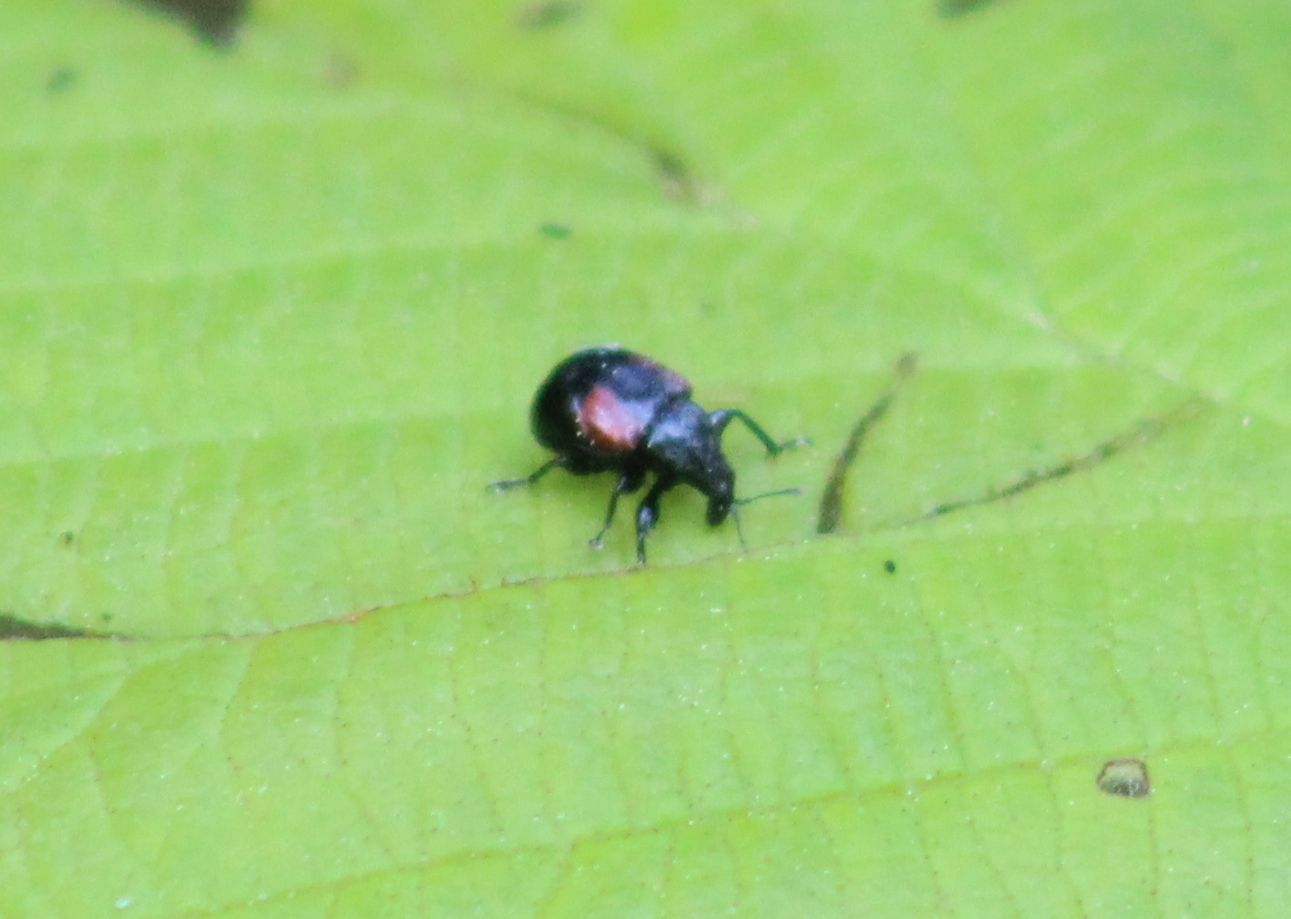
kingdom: Animalia
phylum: Arthropoda
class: Insecta
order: Coleoptera
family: Attelabidae
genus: Attelabus
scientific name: Attelabus bipustulatus
